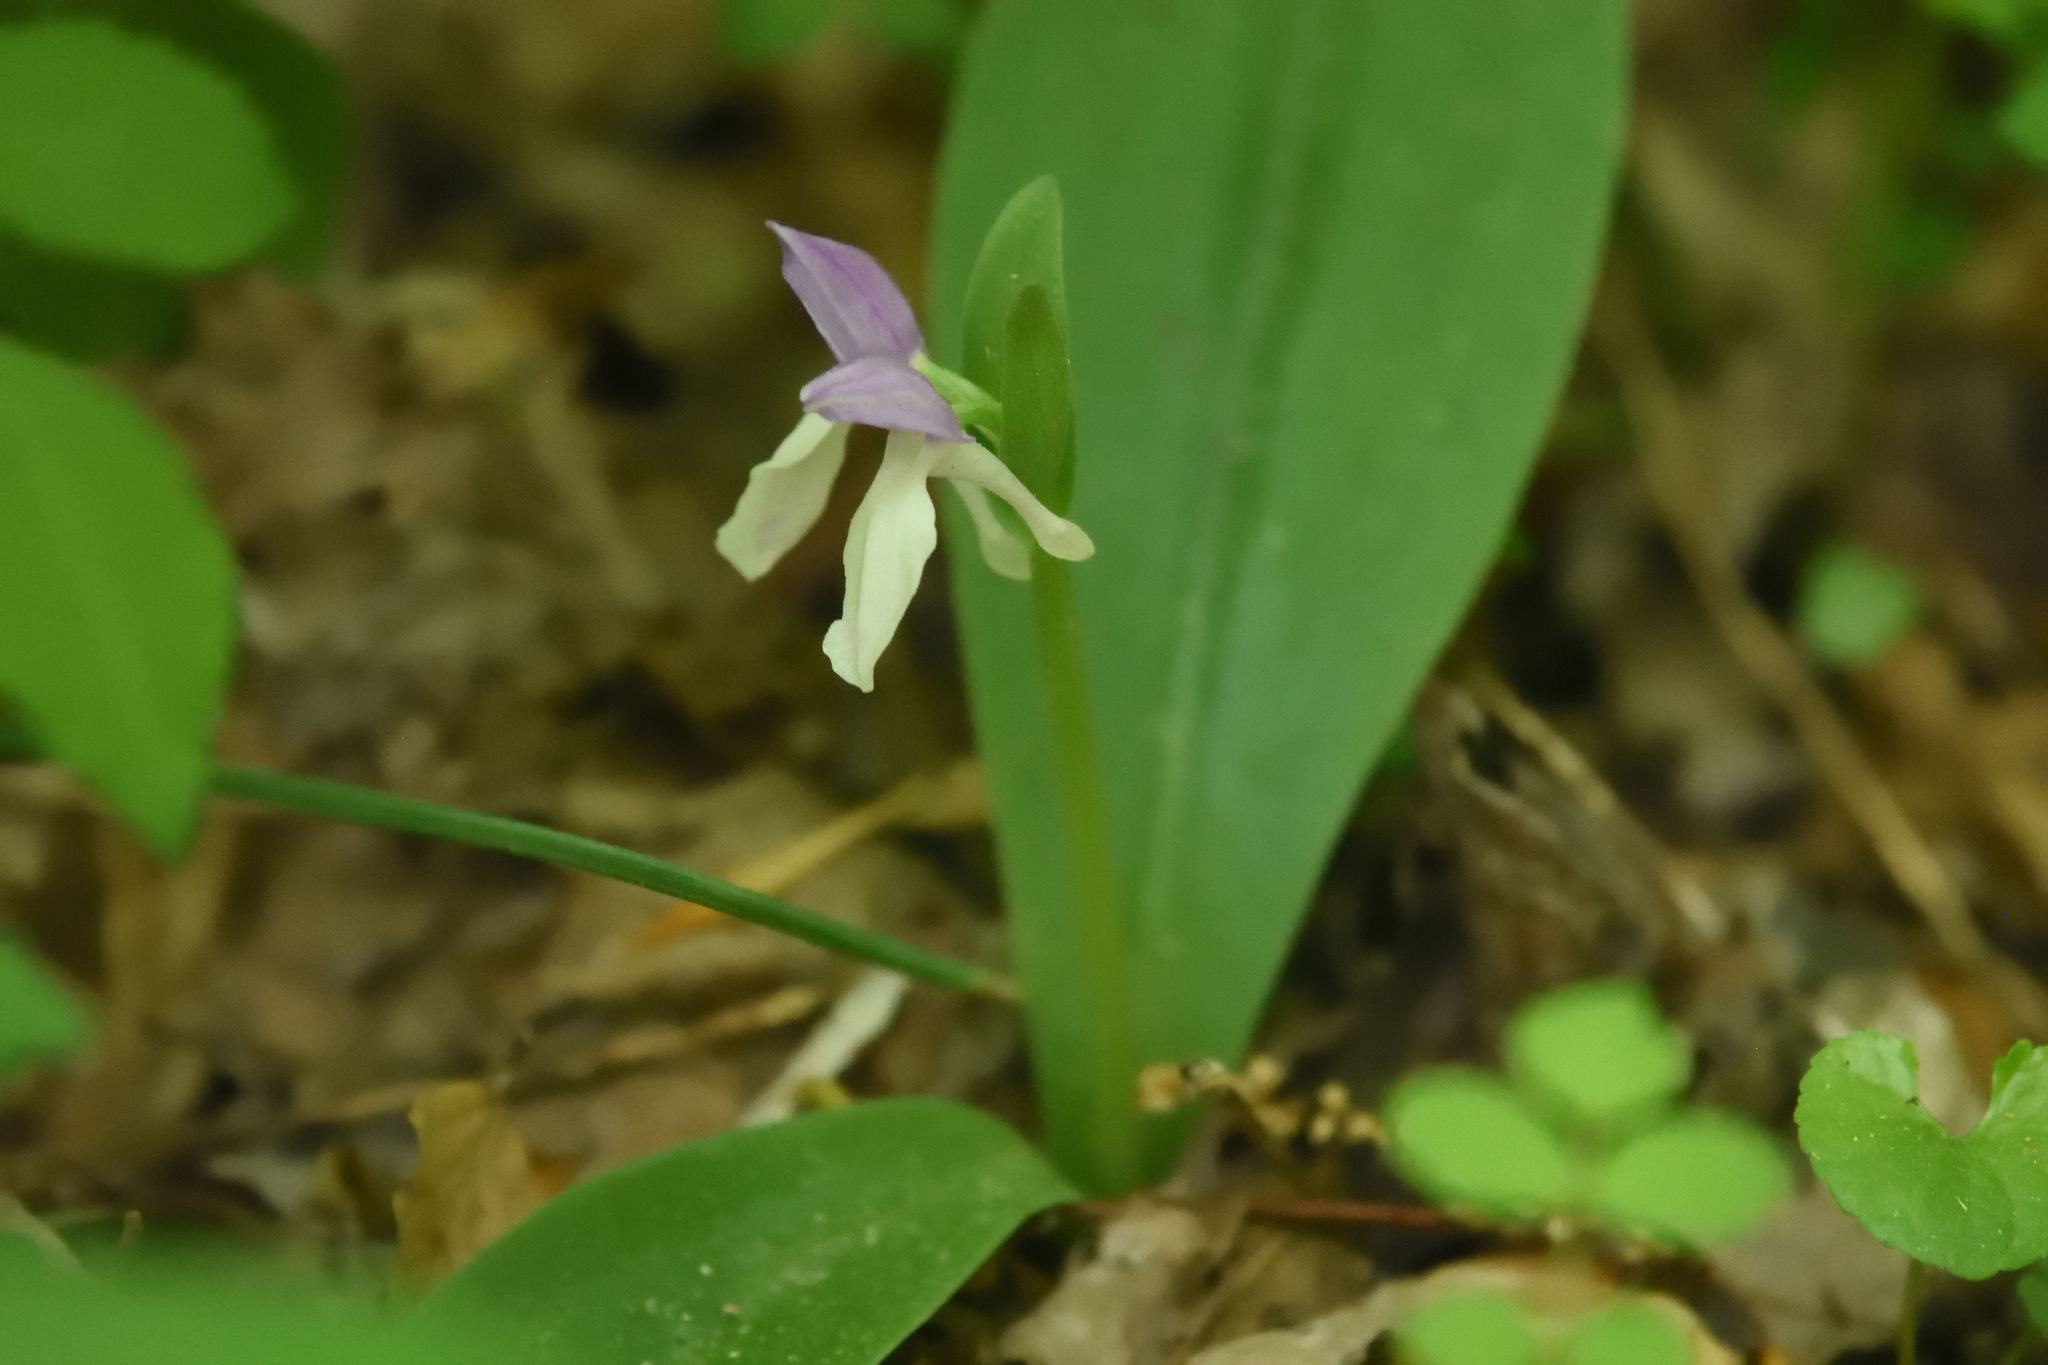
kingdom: Plantae
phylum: Tracheophyta
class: Liliopsida
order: Asparagales
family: Orchidaceae
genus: Galearis
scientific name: Galearis spectabilis
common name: Purple-hooded orchis
